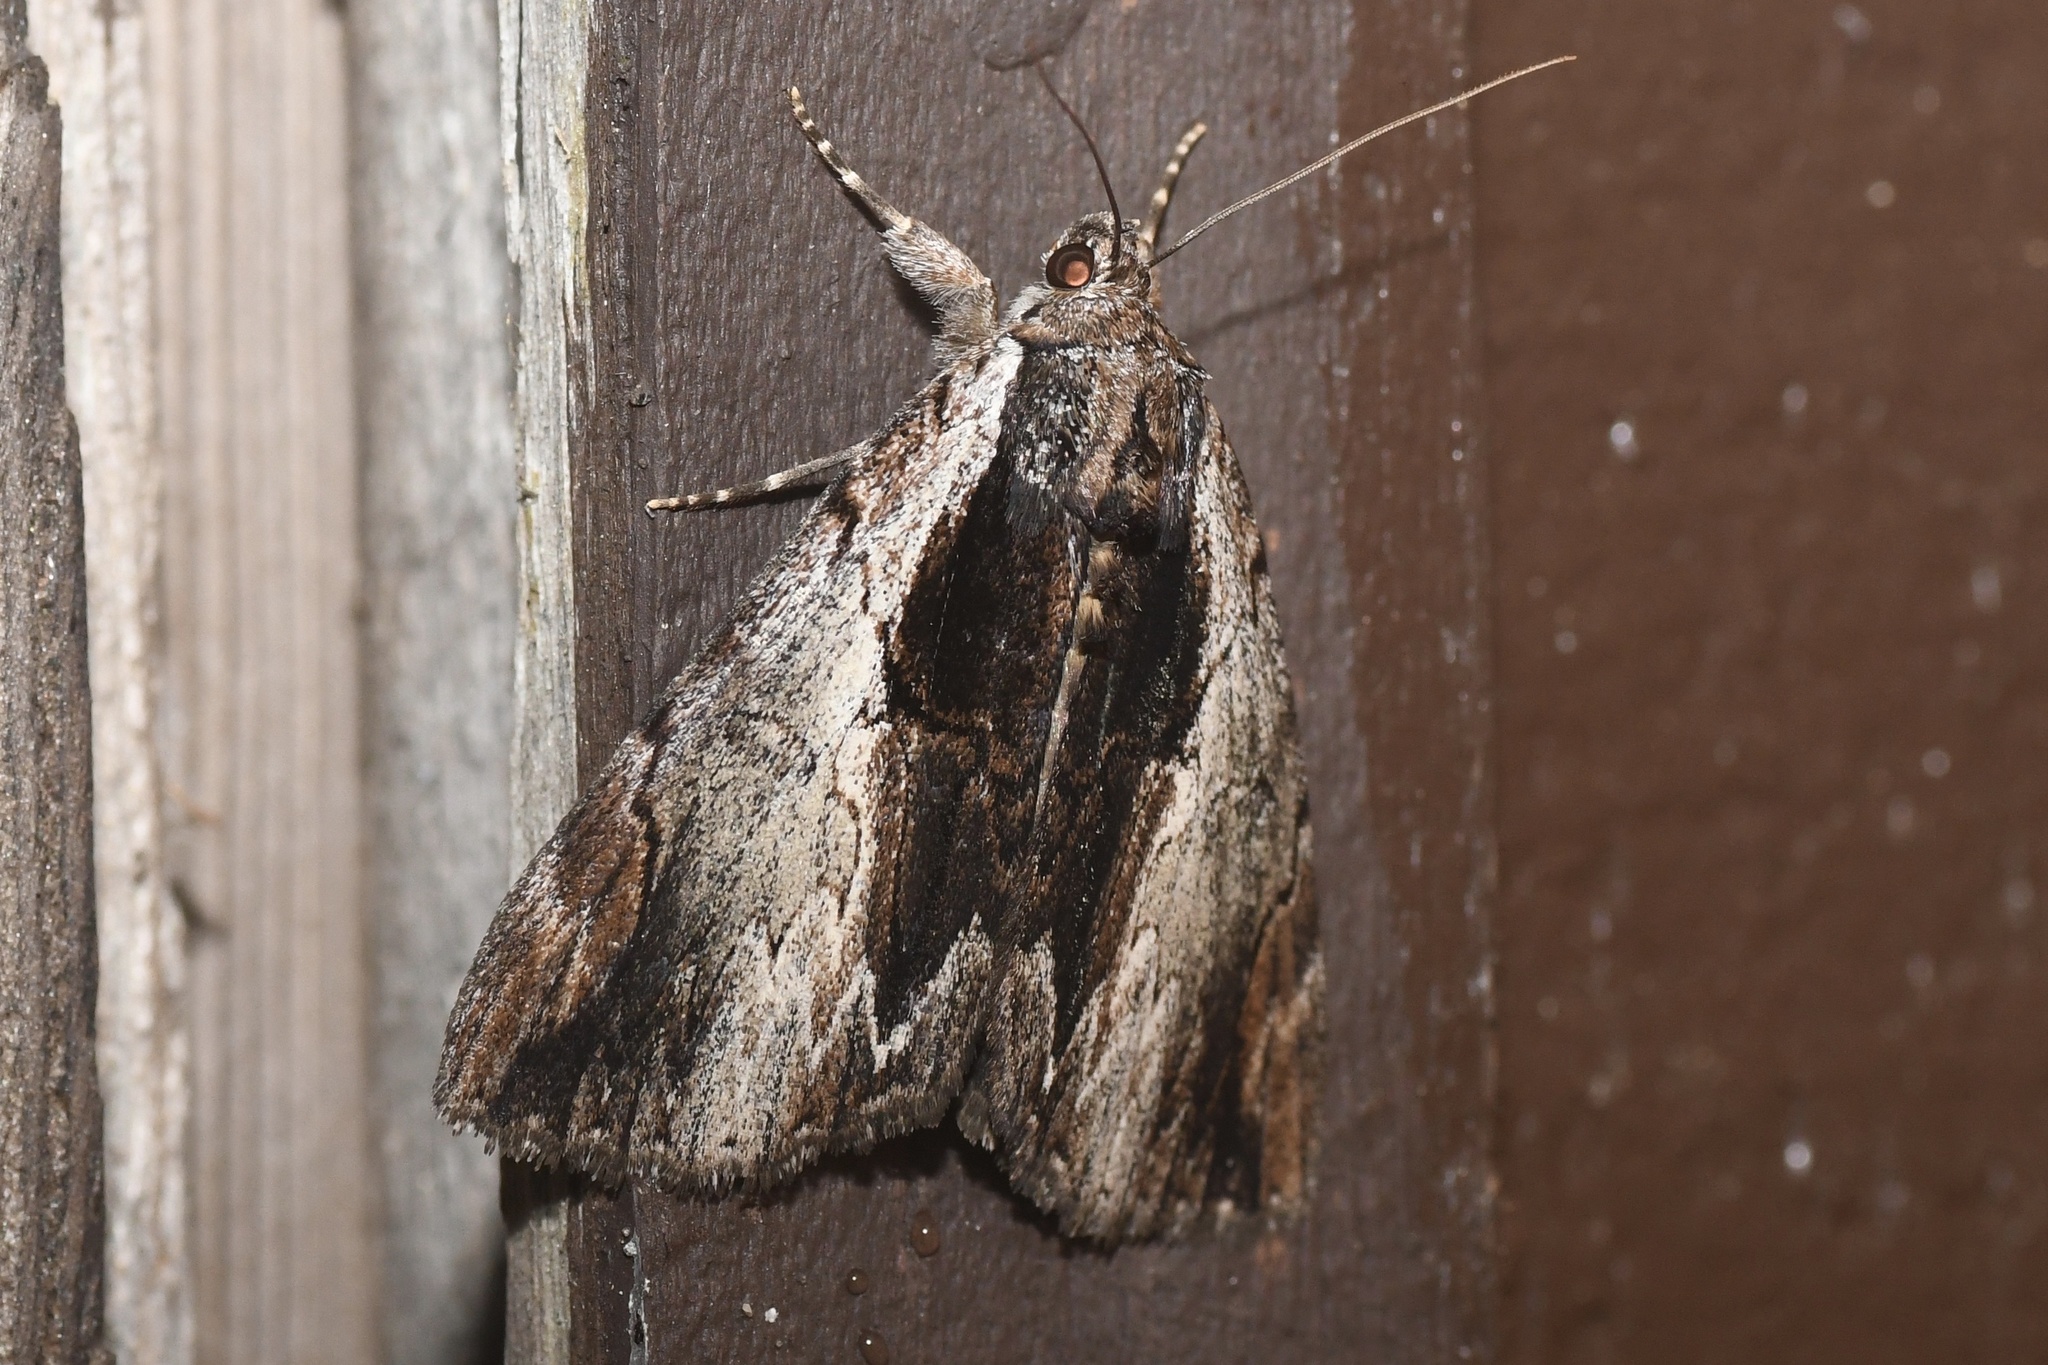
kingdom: Animalia
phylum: Arthropoda
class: Insecta
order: Lepidoptera
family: Erebidae
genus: Catocala
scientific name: Catocala ultronia
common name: Ultronia underwing
